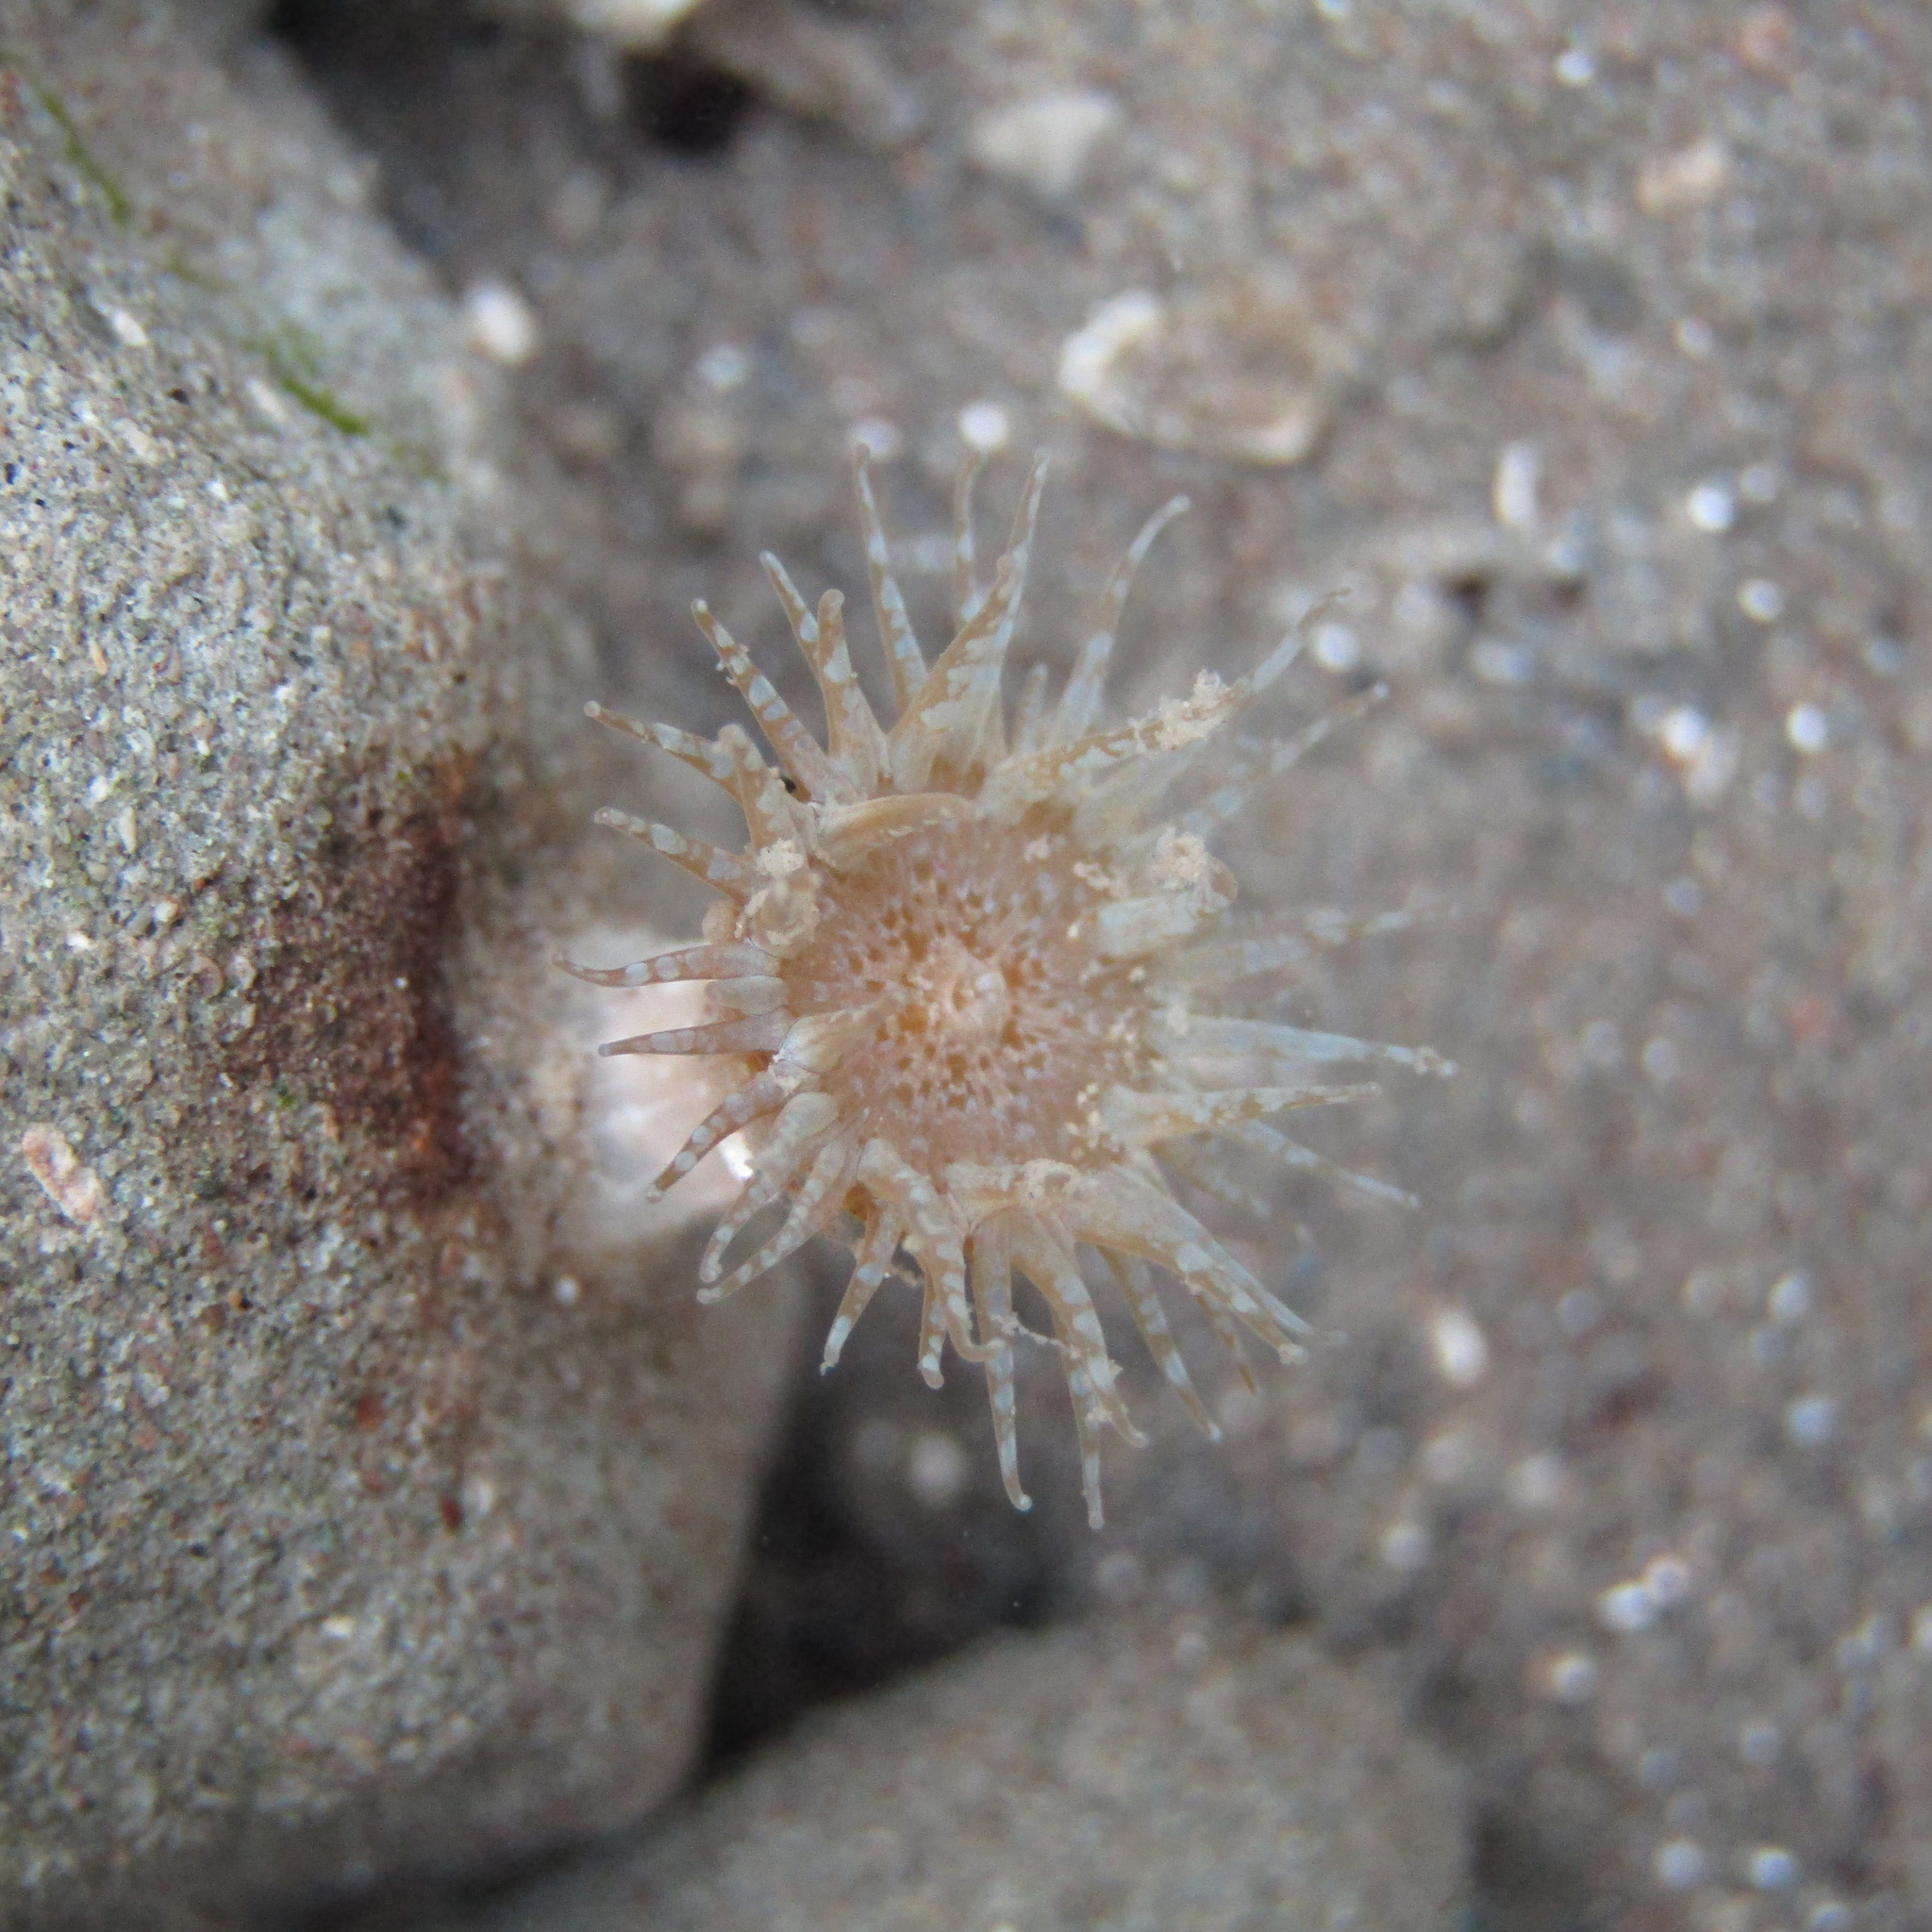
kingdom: Animalia
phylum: Cnidaria
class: Anthozoa
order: Actiniaria
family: Actiniidae
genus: Anthopleura
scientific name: Anthopleura hermaphroditica
